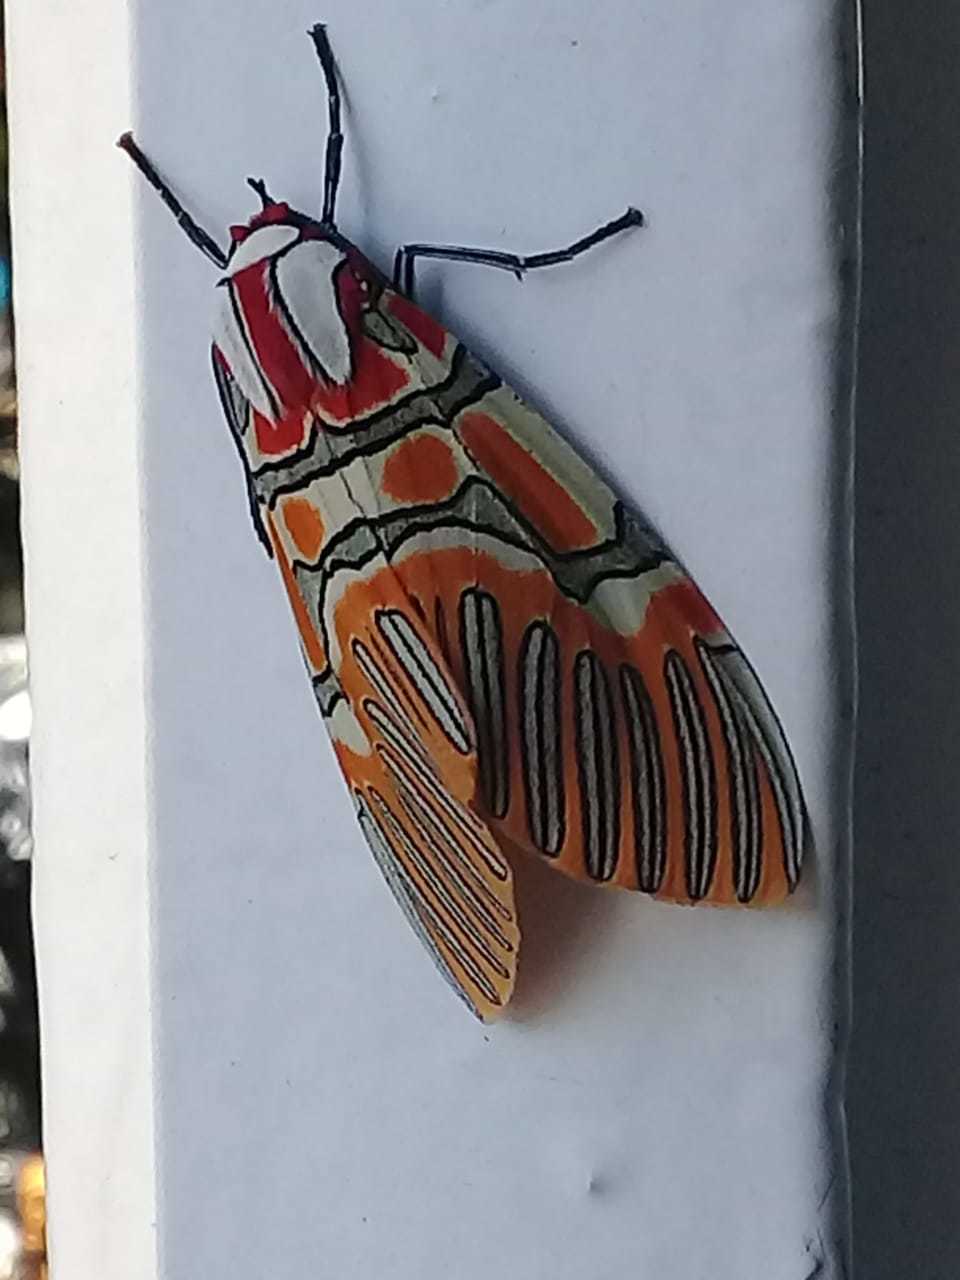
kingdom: Animalia
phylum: Arthropoda
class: Insecta
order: Lepidoptera
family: Erebidae
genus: Anaxita
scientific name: Anaxita decorata
